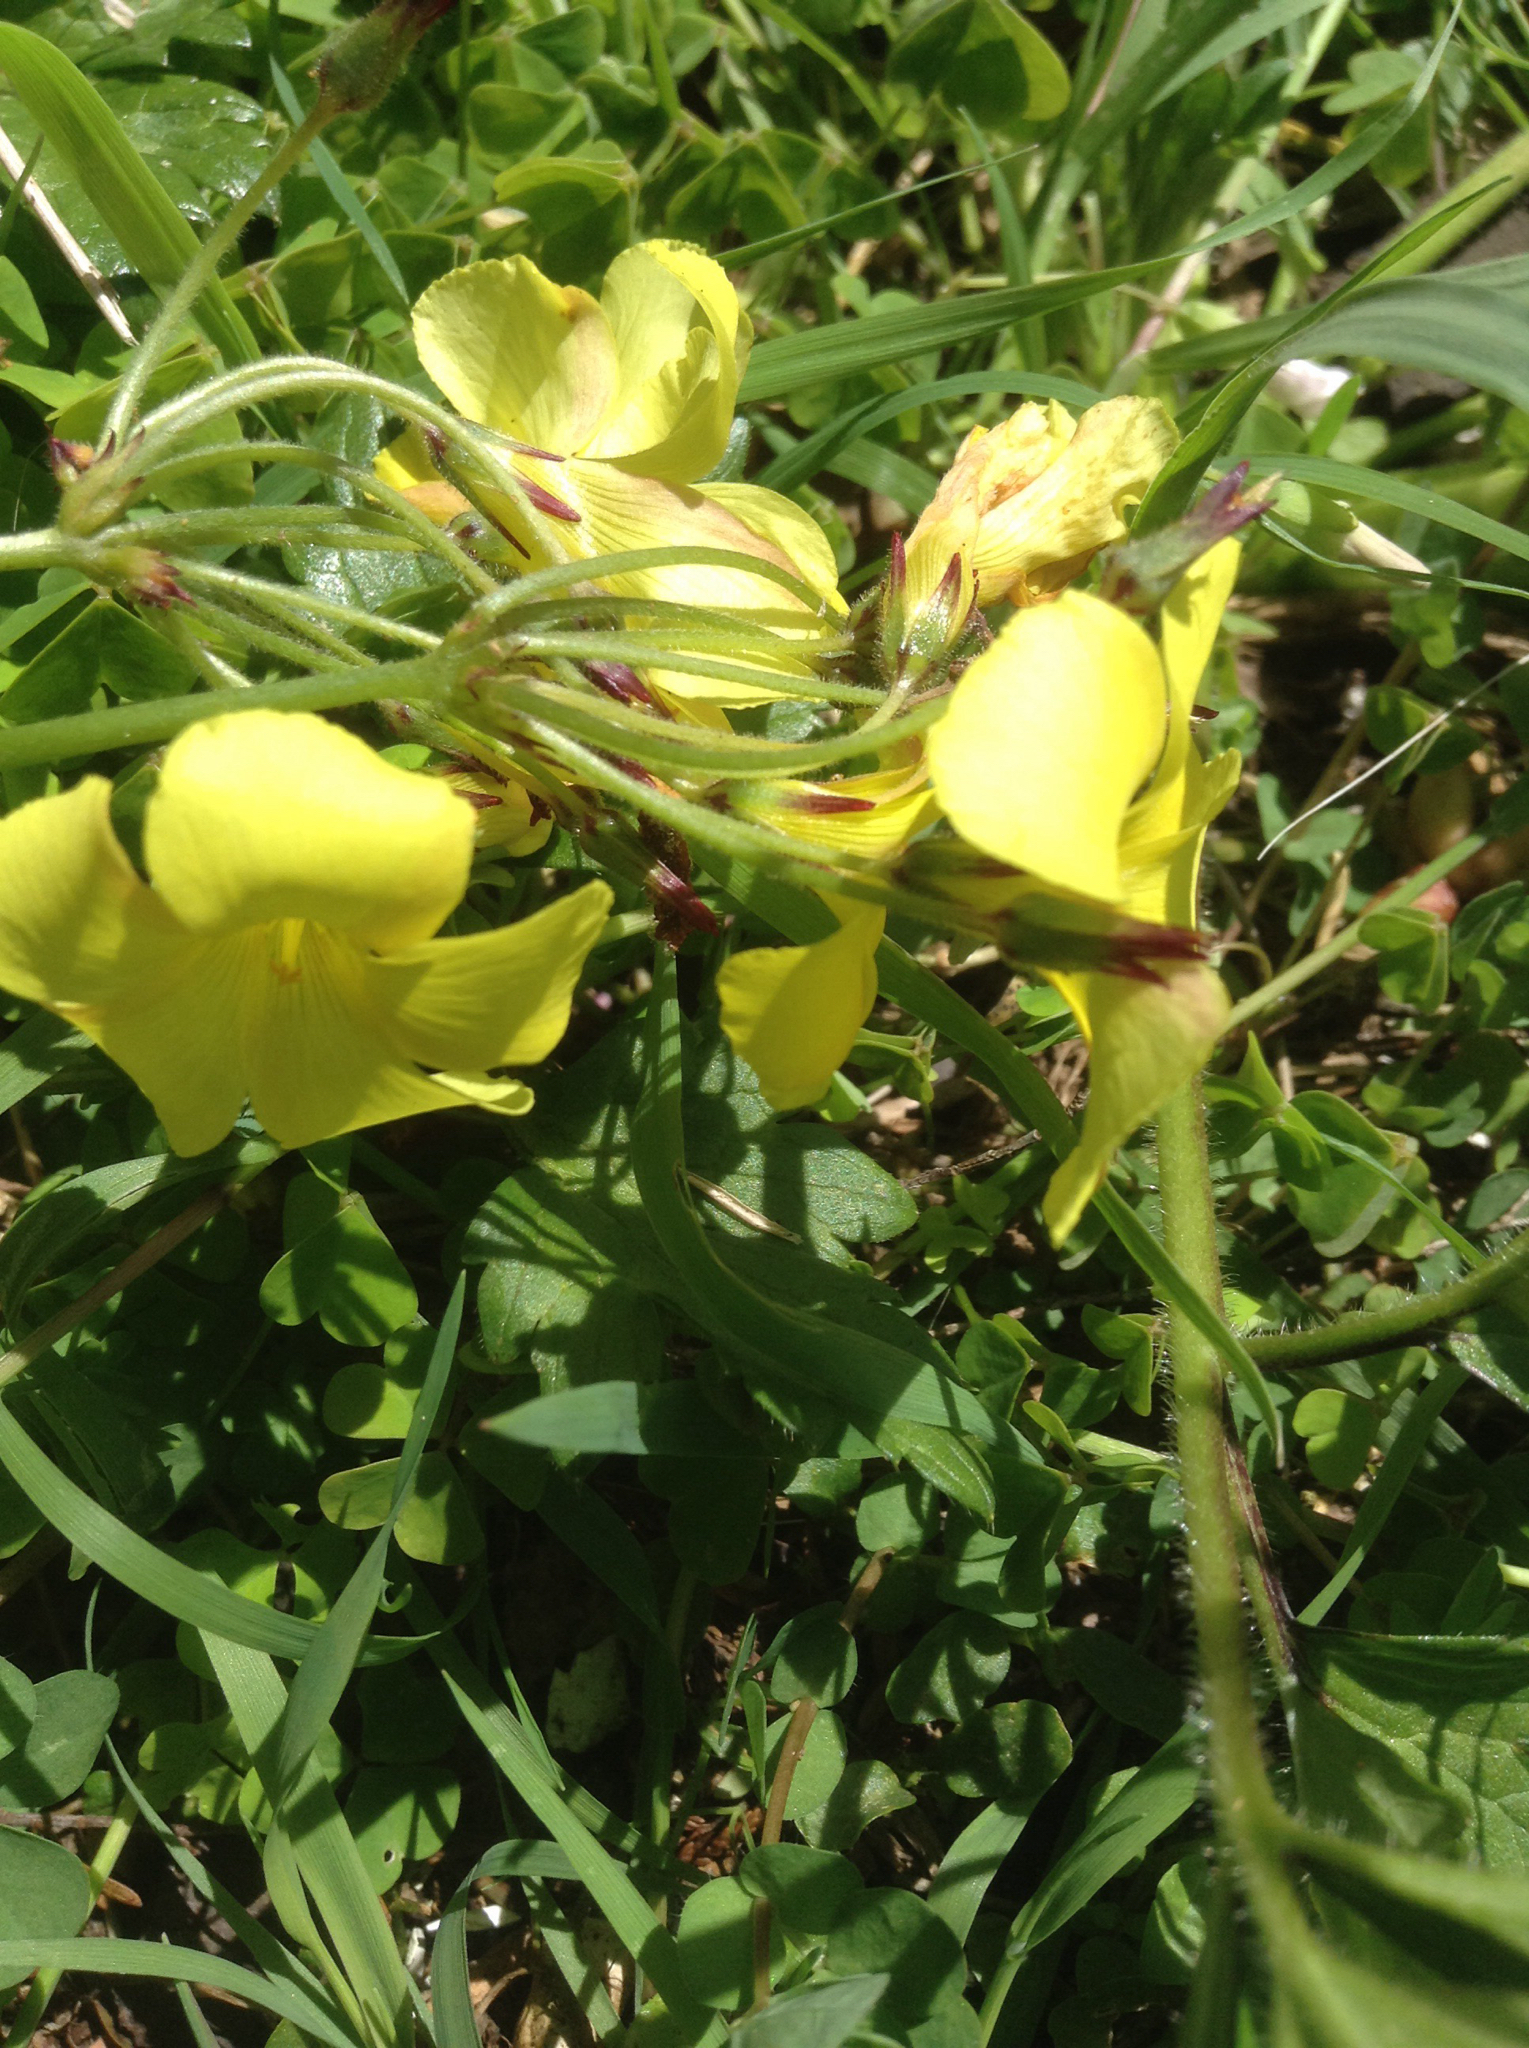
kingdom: Plantae
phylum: Tracheophyta
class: Magnoliopsida
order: Oxalidales
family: Oxalidaceae
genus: Oxalis
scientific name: Oxalis pes-caprae
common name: Bermuda-buttercup
